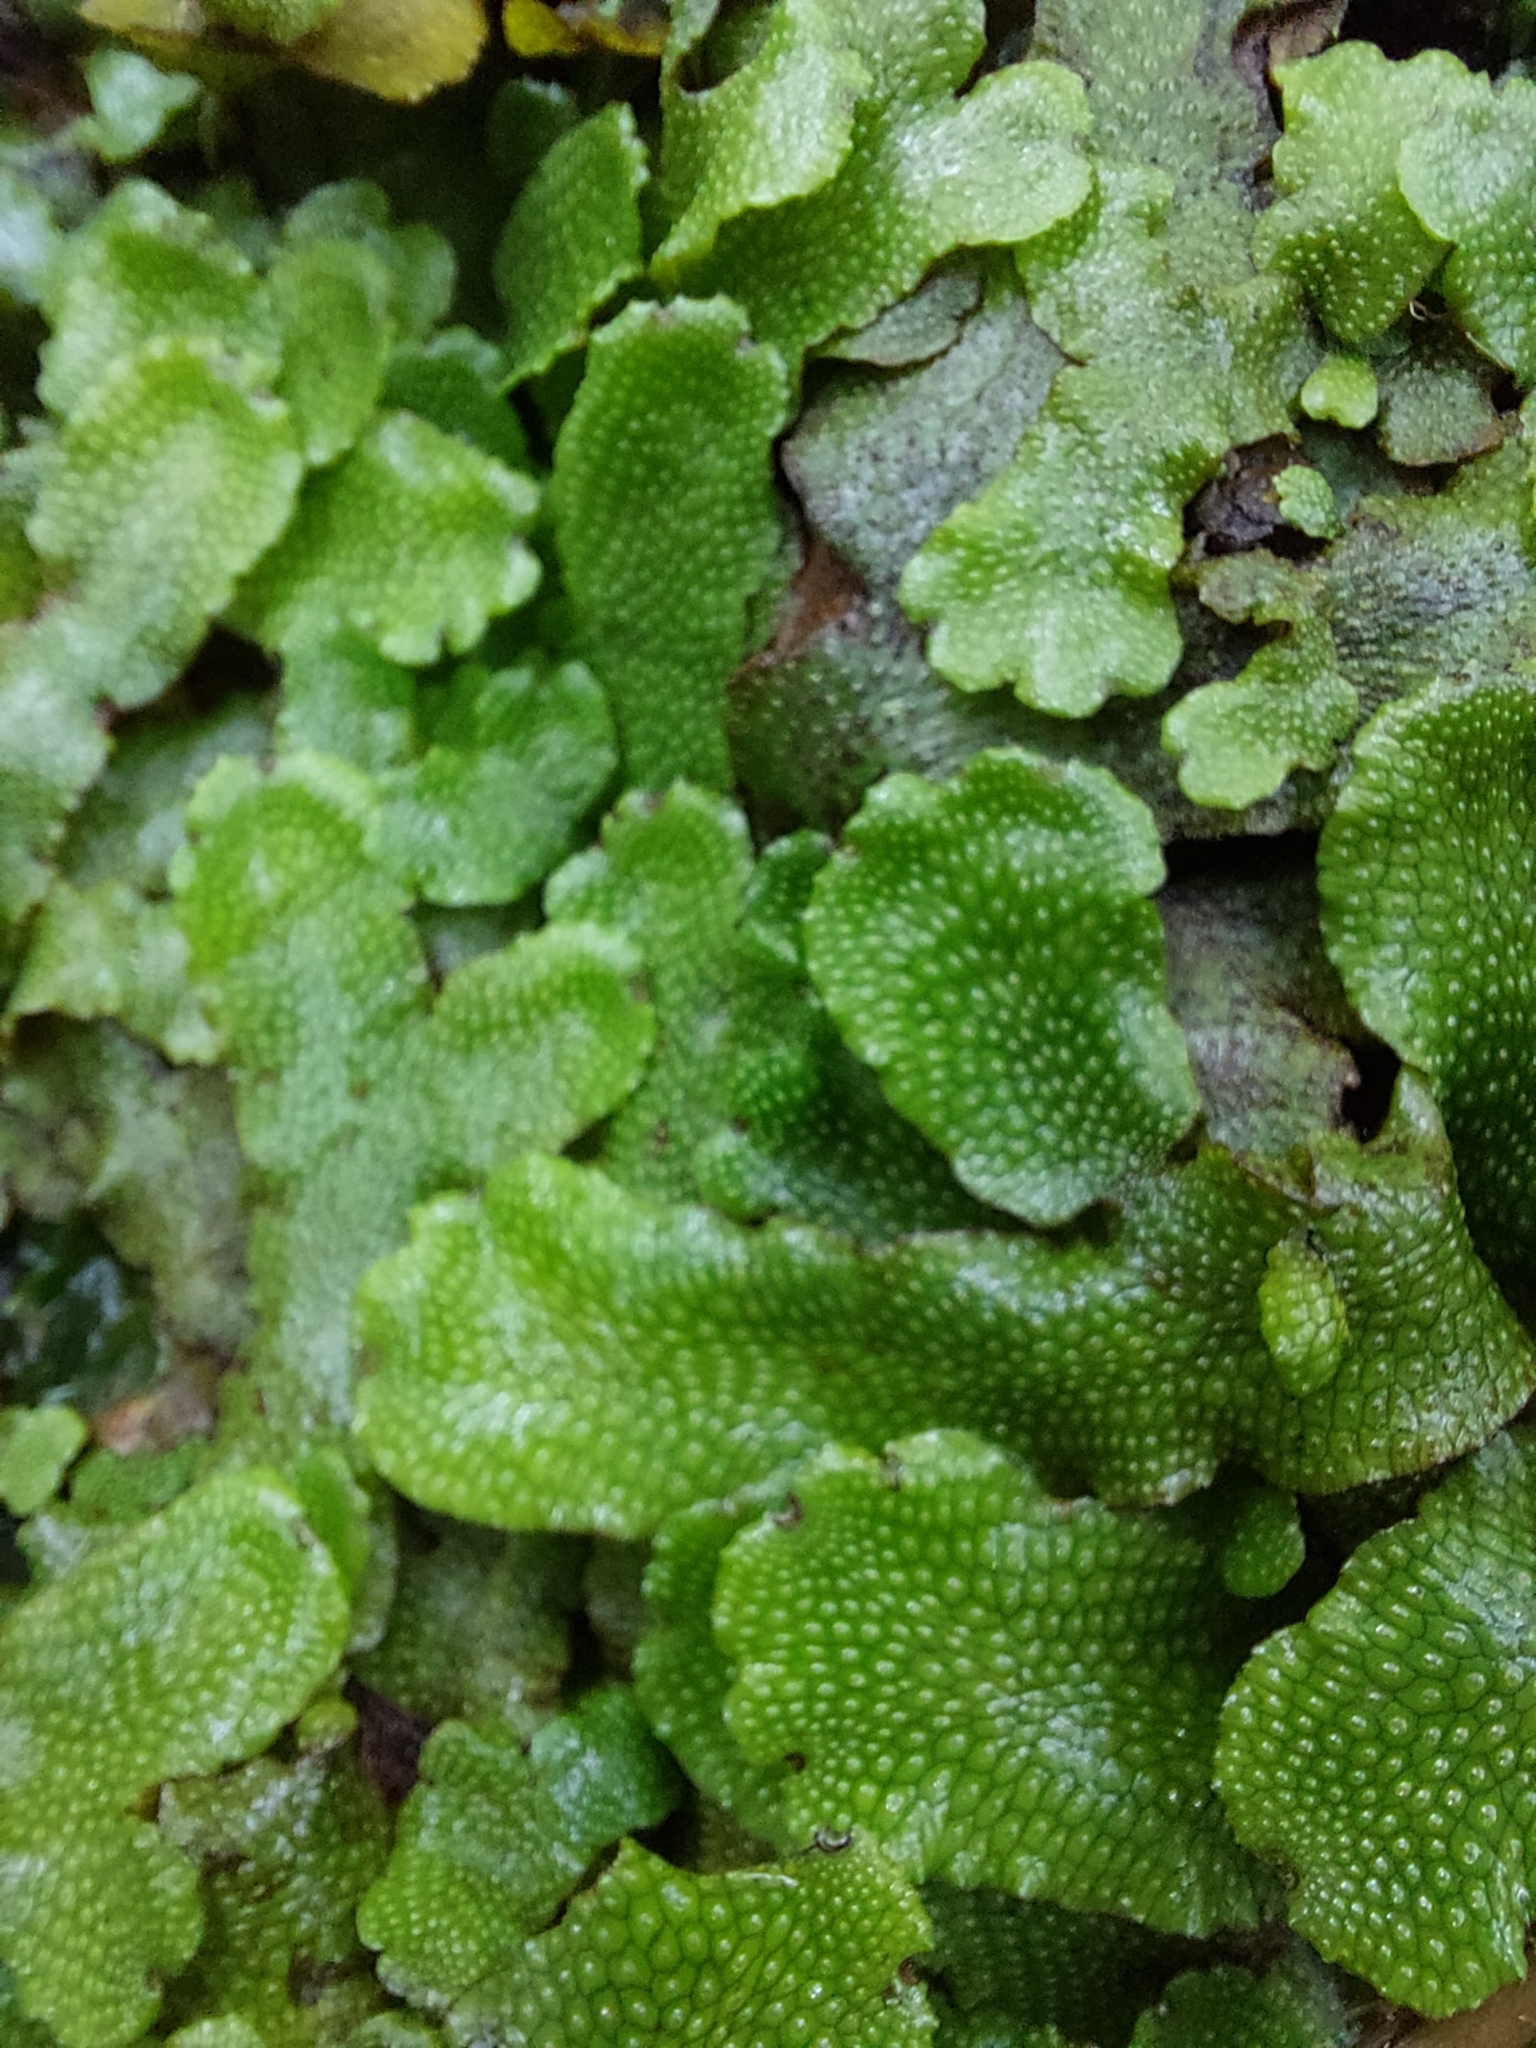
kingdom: Plantae
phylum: Marchantiophyta
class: Marchantiopsida
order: Marchantiales
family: Conocephalaceae
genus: Conocephalum
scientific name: Conocephalum conicum
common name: Great scented liverwort
